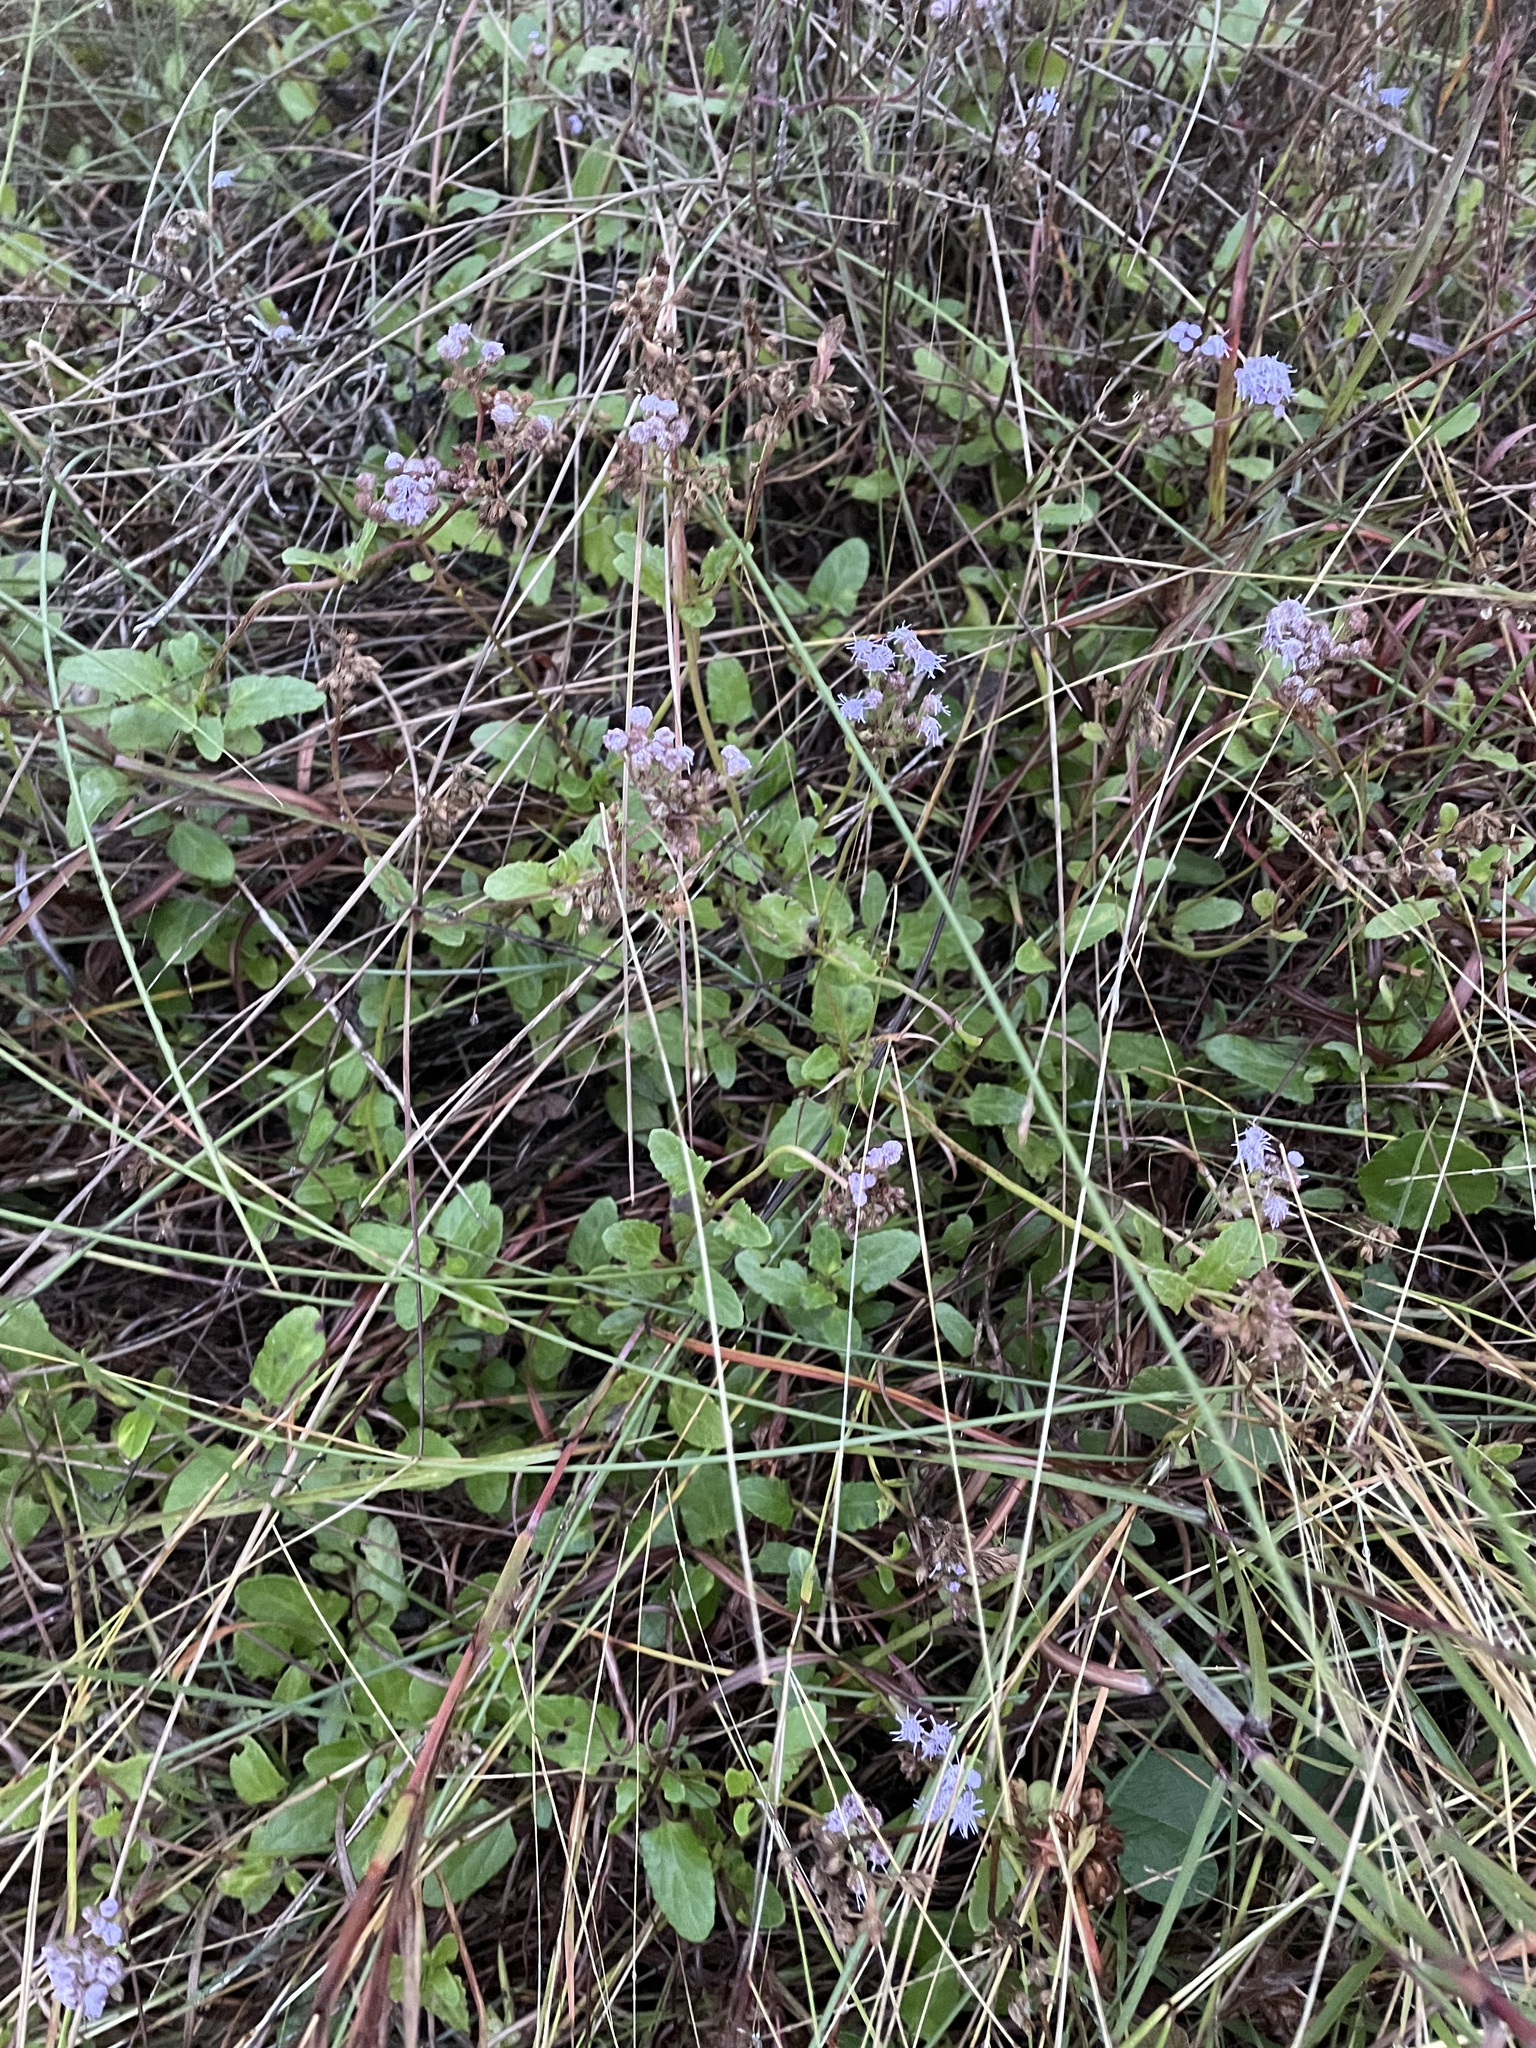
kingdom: Plantae
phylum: Tracheophyta
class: Magnoliopsida
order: Asterales
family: Asteraceae
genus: Conoclinium
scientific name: Conoclinium betonicifolium
